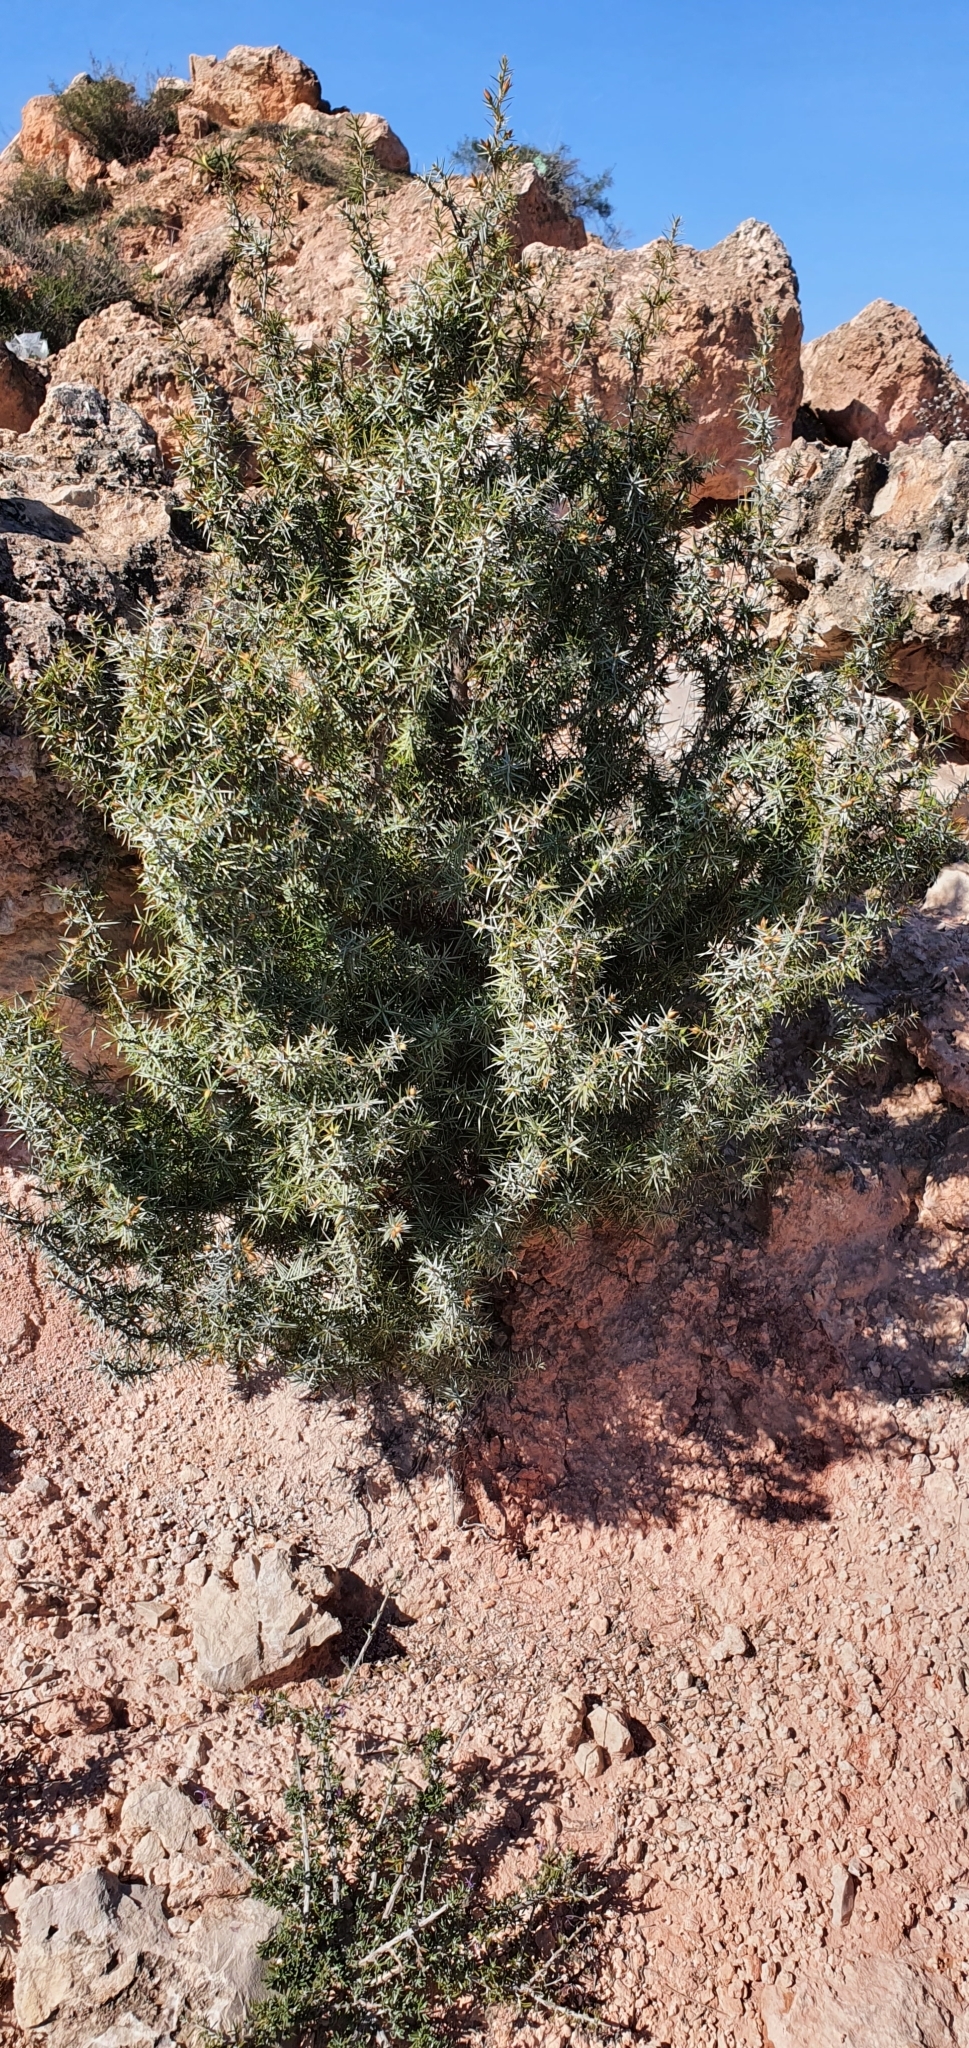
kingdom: Plantae
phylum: Tracheophyta
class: Pinopsida
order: Pinales
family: Cupressaceae
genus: Juniperus
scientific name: Juniperus oxycedrus
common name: Prickly juniper
